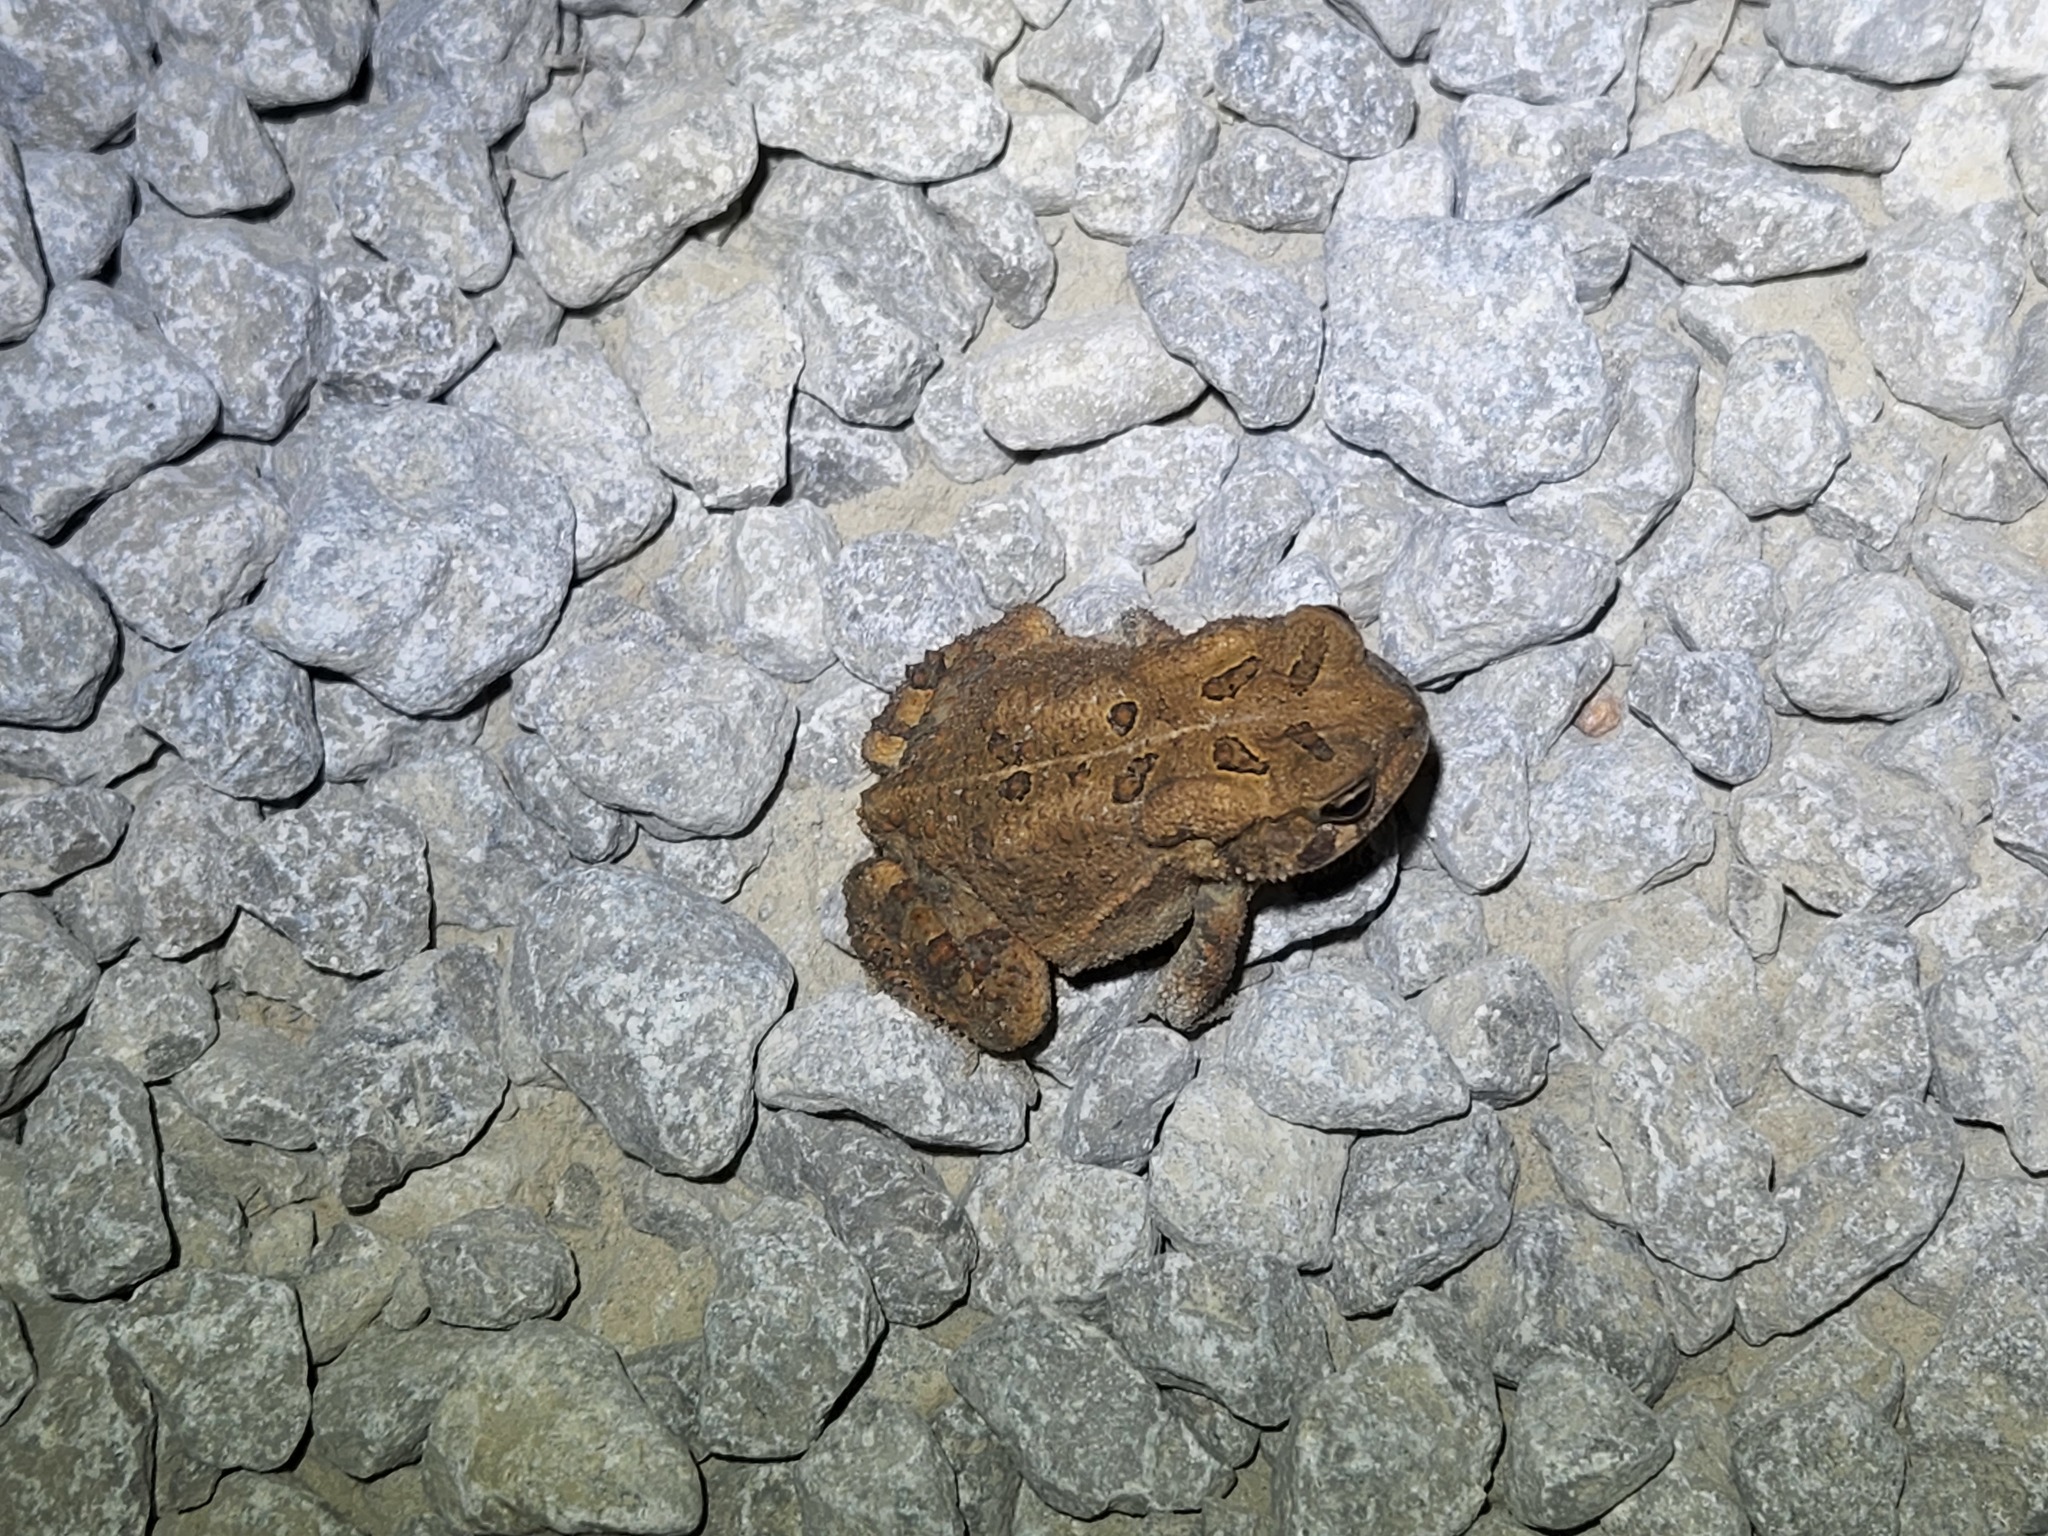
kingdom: Animalia
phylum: Chordata
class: Amphibia
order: Anura
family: Bufonidae
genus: Anaxyrus
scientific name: Anaxyrus americanus
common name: American toad
